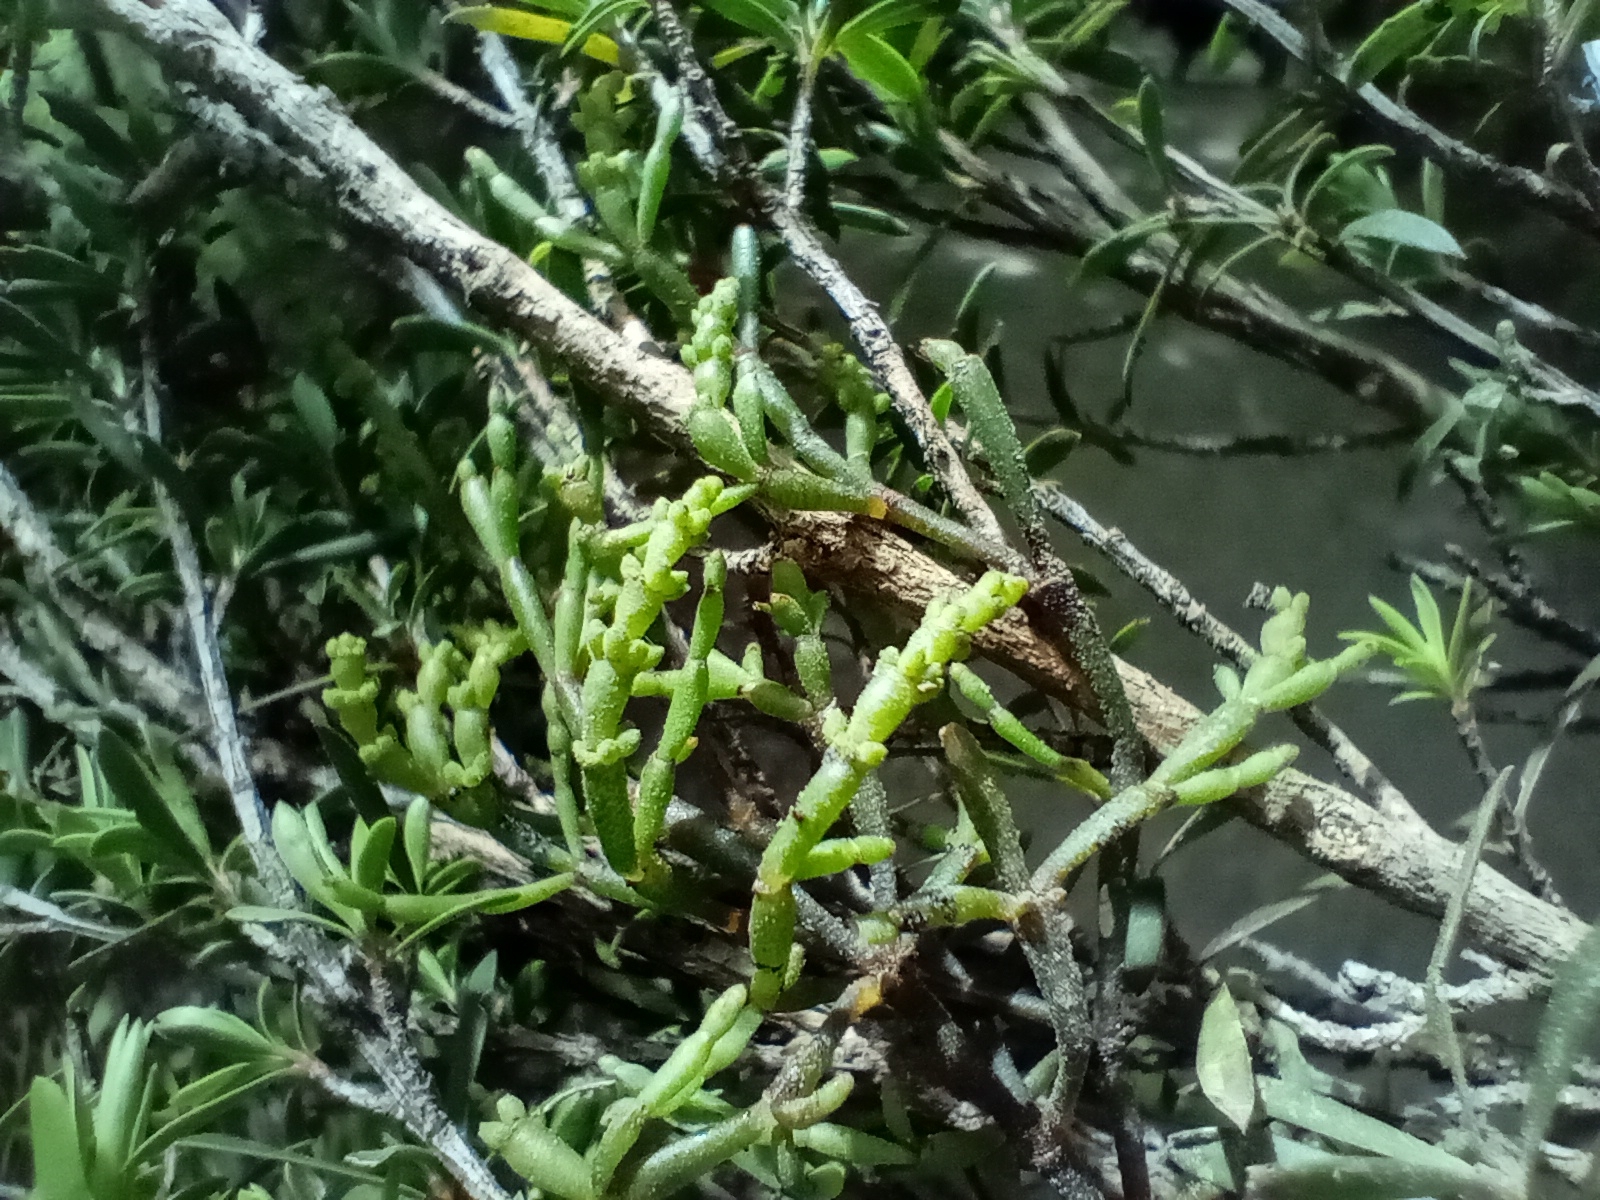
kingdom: Plantae
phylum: Tracheophyta
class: Magnoliopsida
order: Santalales
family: Viscaceae
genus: Korthalsella
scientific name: Korthalsella salicornioides
